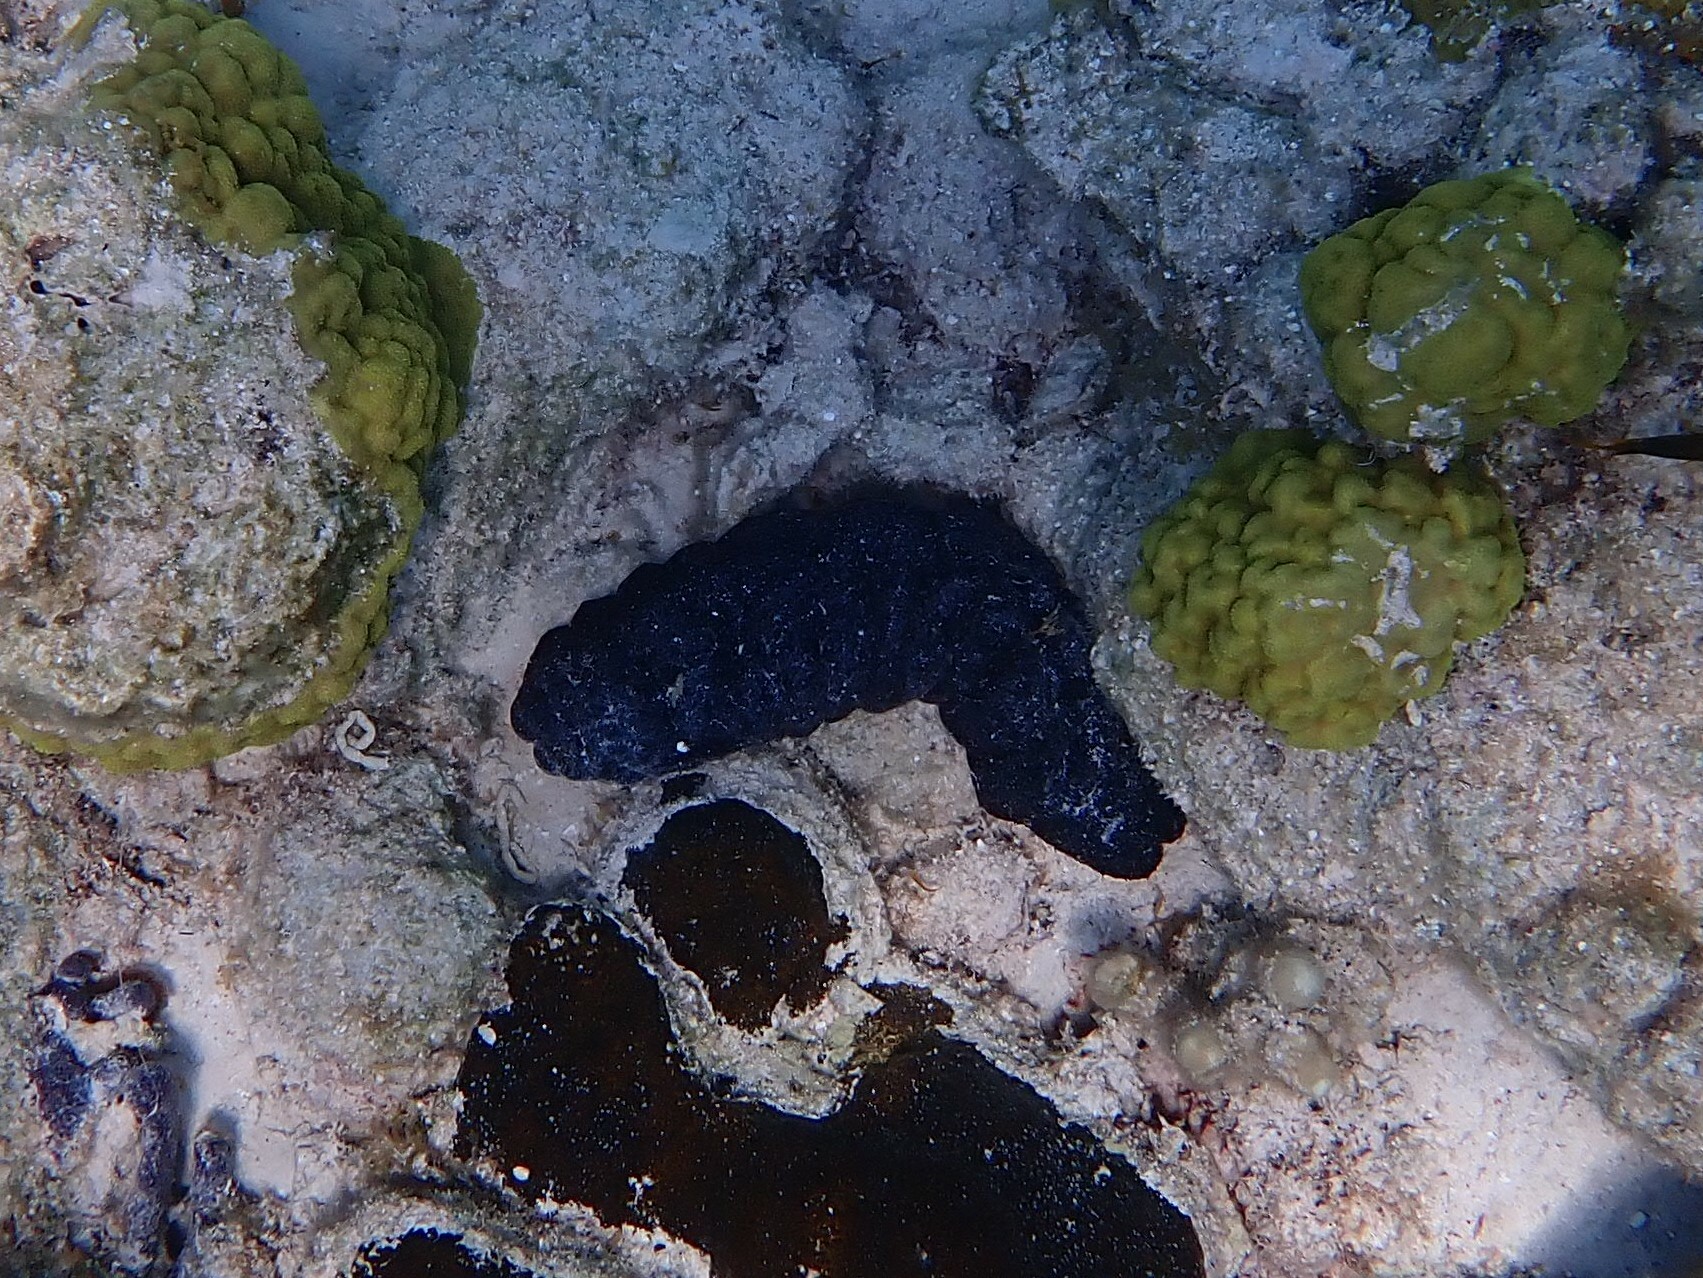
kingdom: Animalia
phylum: Echinodermata
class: Holothuroidea
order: Holothuriida
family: Holothuriidae
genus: Holothuria
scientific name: Holothuria mexicana
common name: Donkey dung sea cucumber
